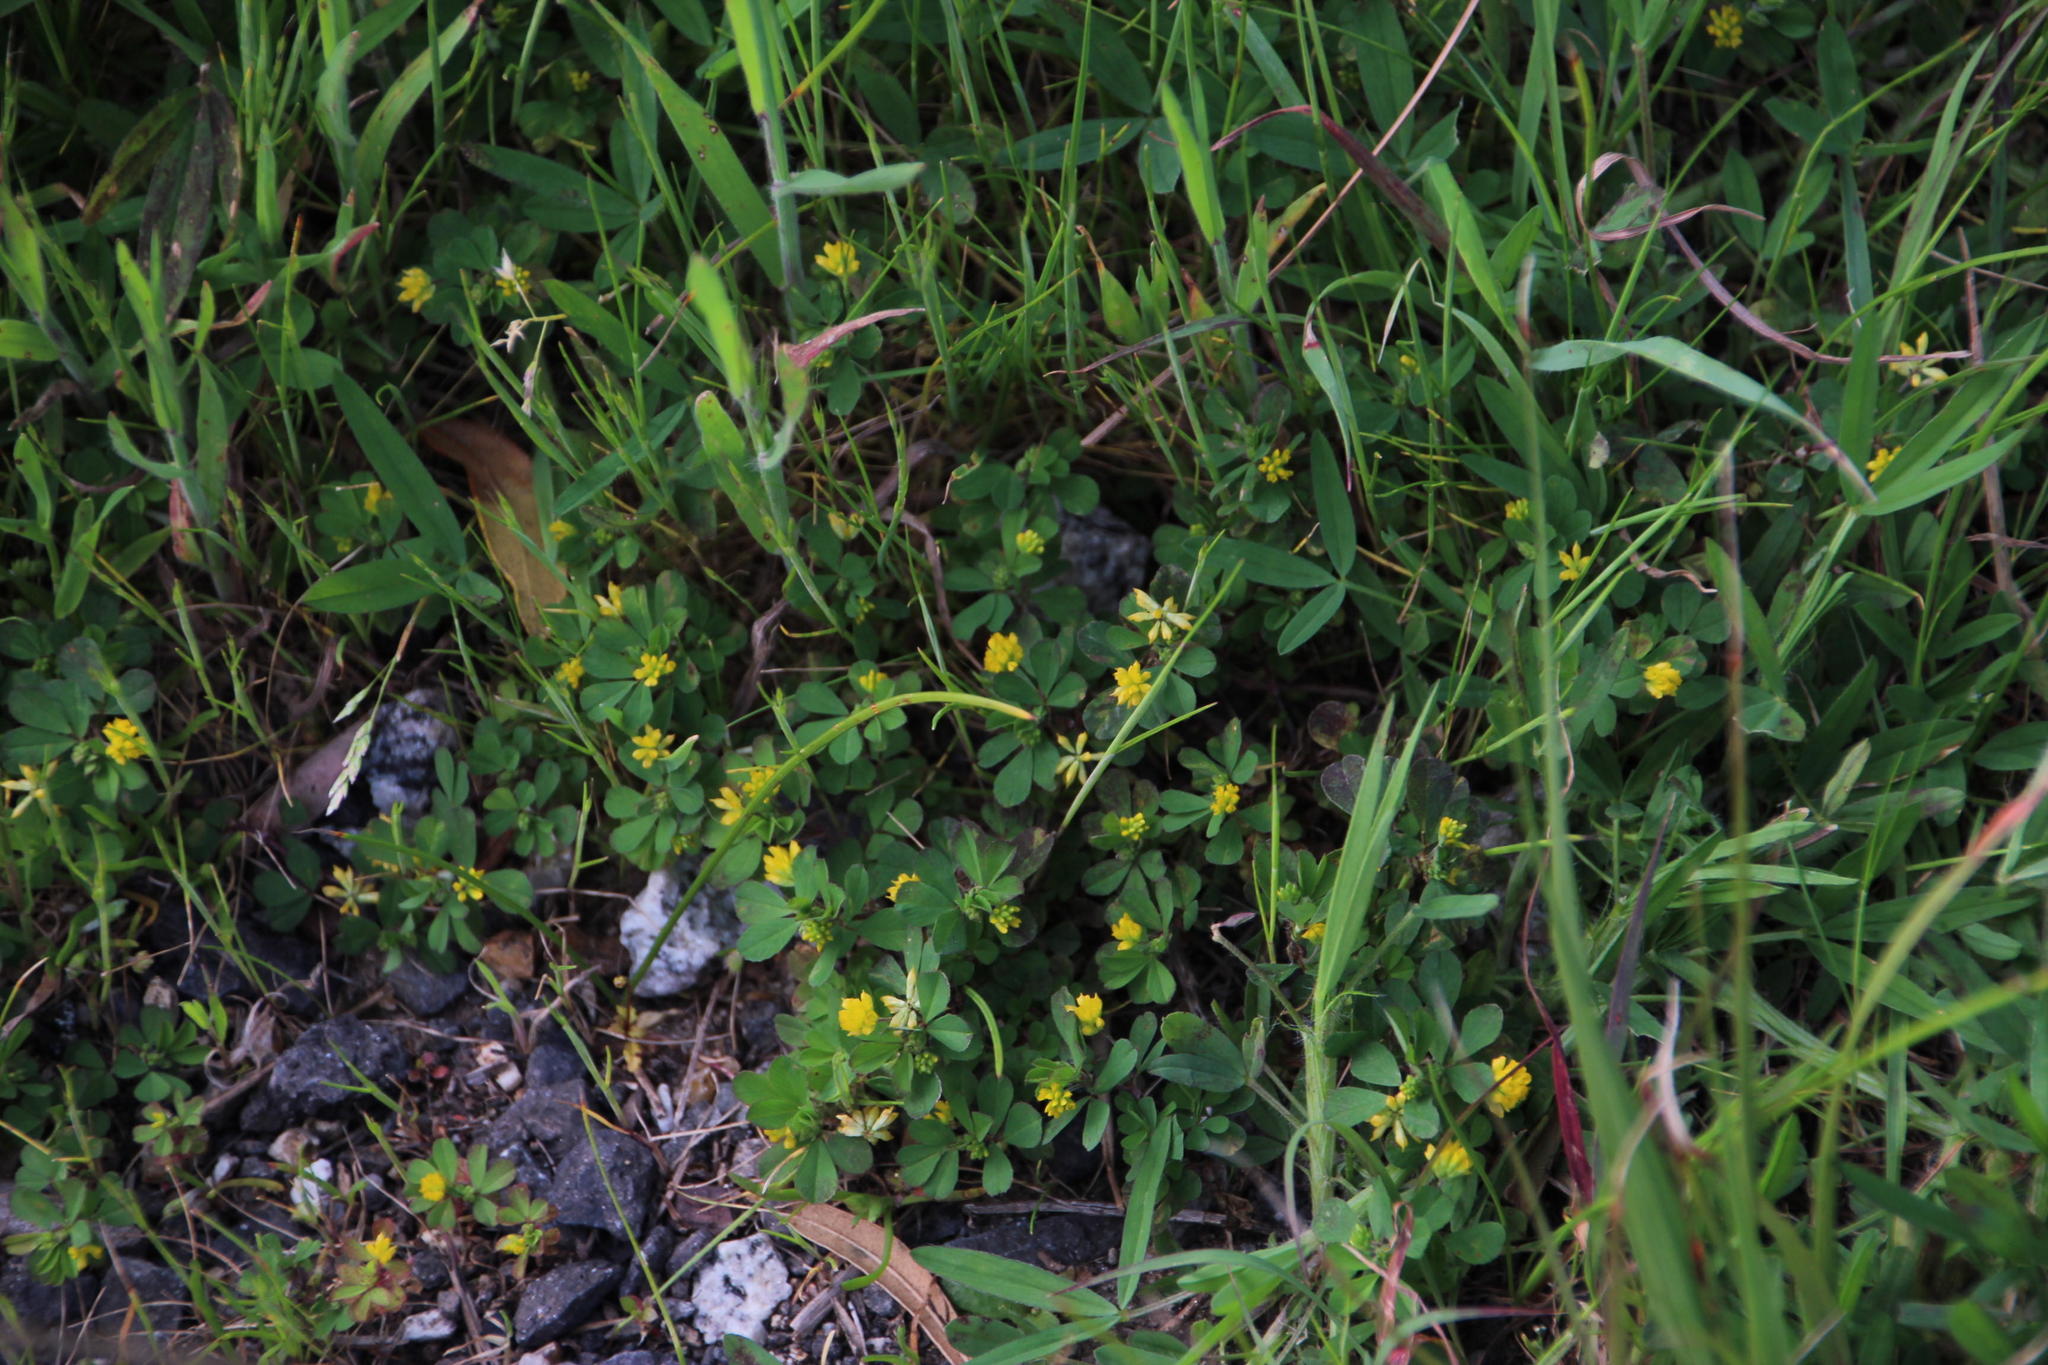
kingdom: Plantae
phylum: Tracheophyta
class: Magnoliopsida
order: Fabales
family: Fabaceae
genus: Trifolium
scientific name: Trifolium dubium
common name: Suckling clover
